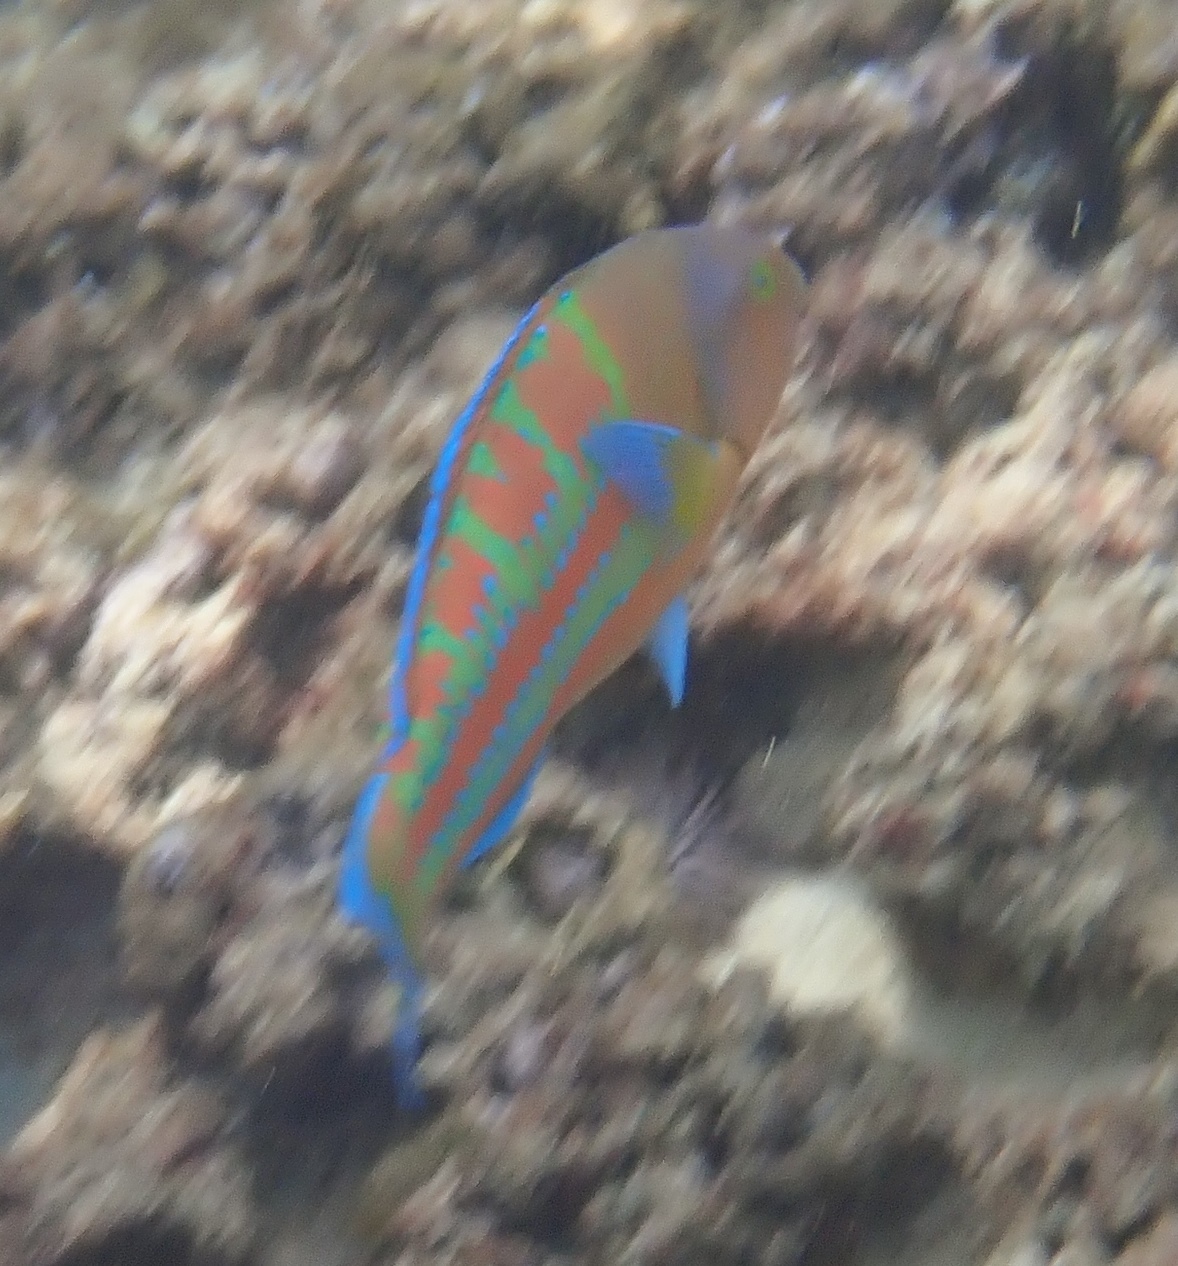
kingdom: Animalia
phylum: Chordata
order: Perciformes
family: Labridae
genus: Thalassoma
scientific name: Thalassoma trilobatum
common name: Christmas wrasse
